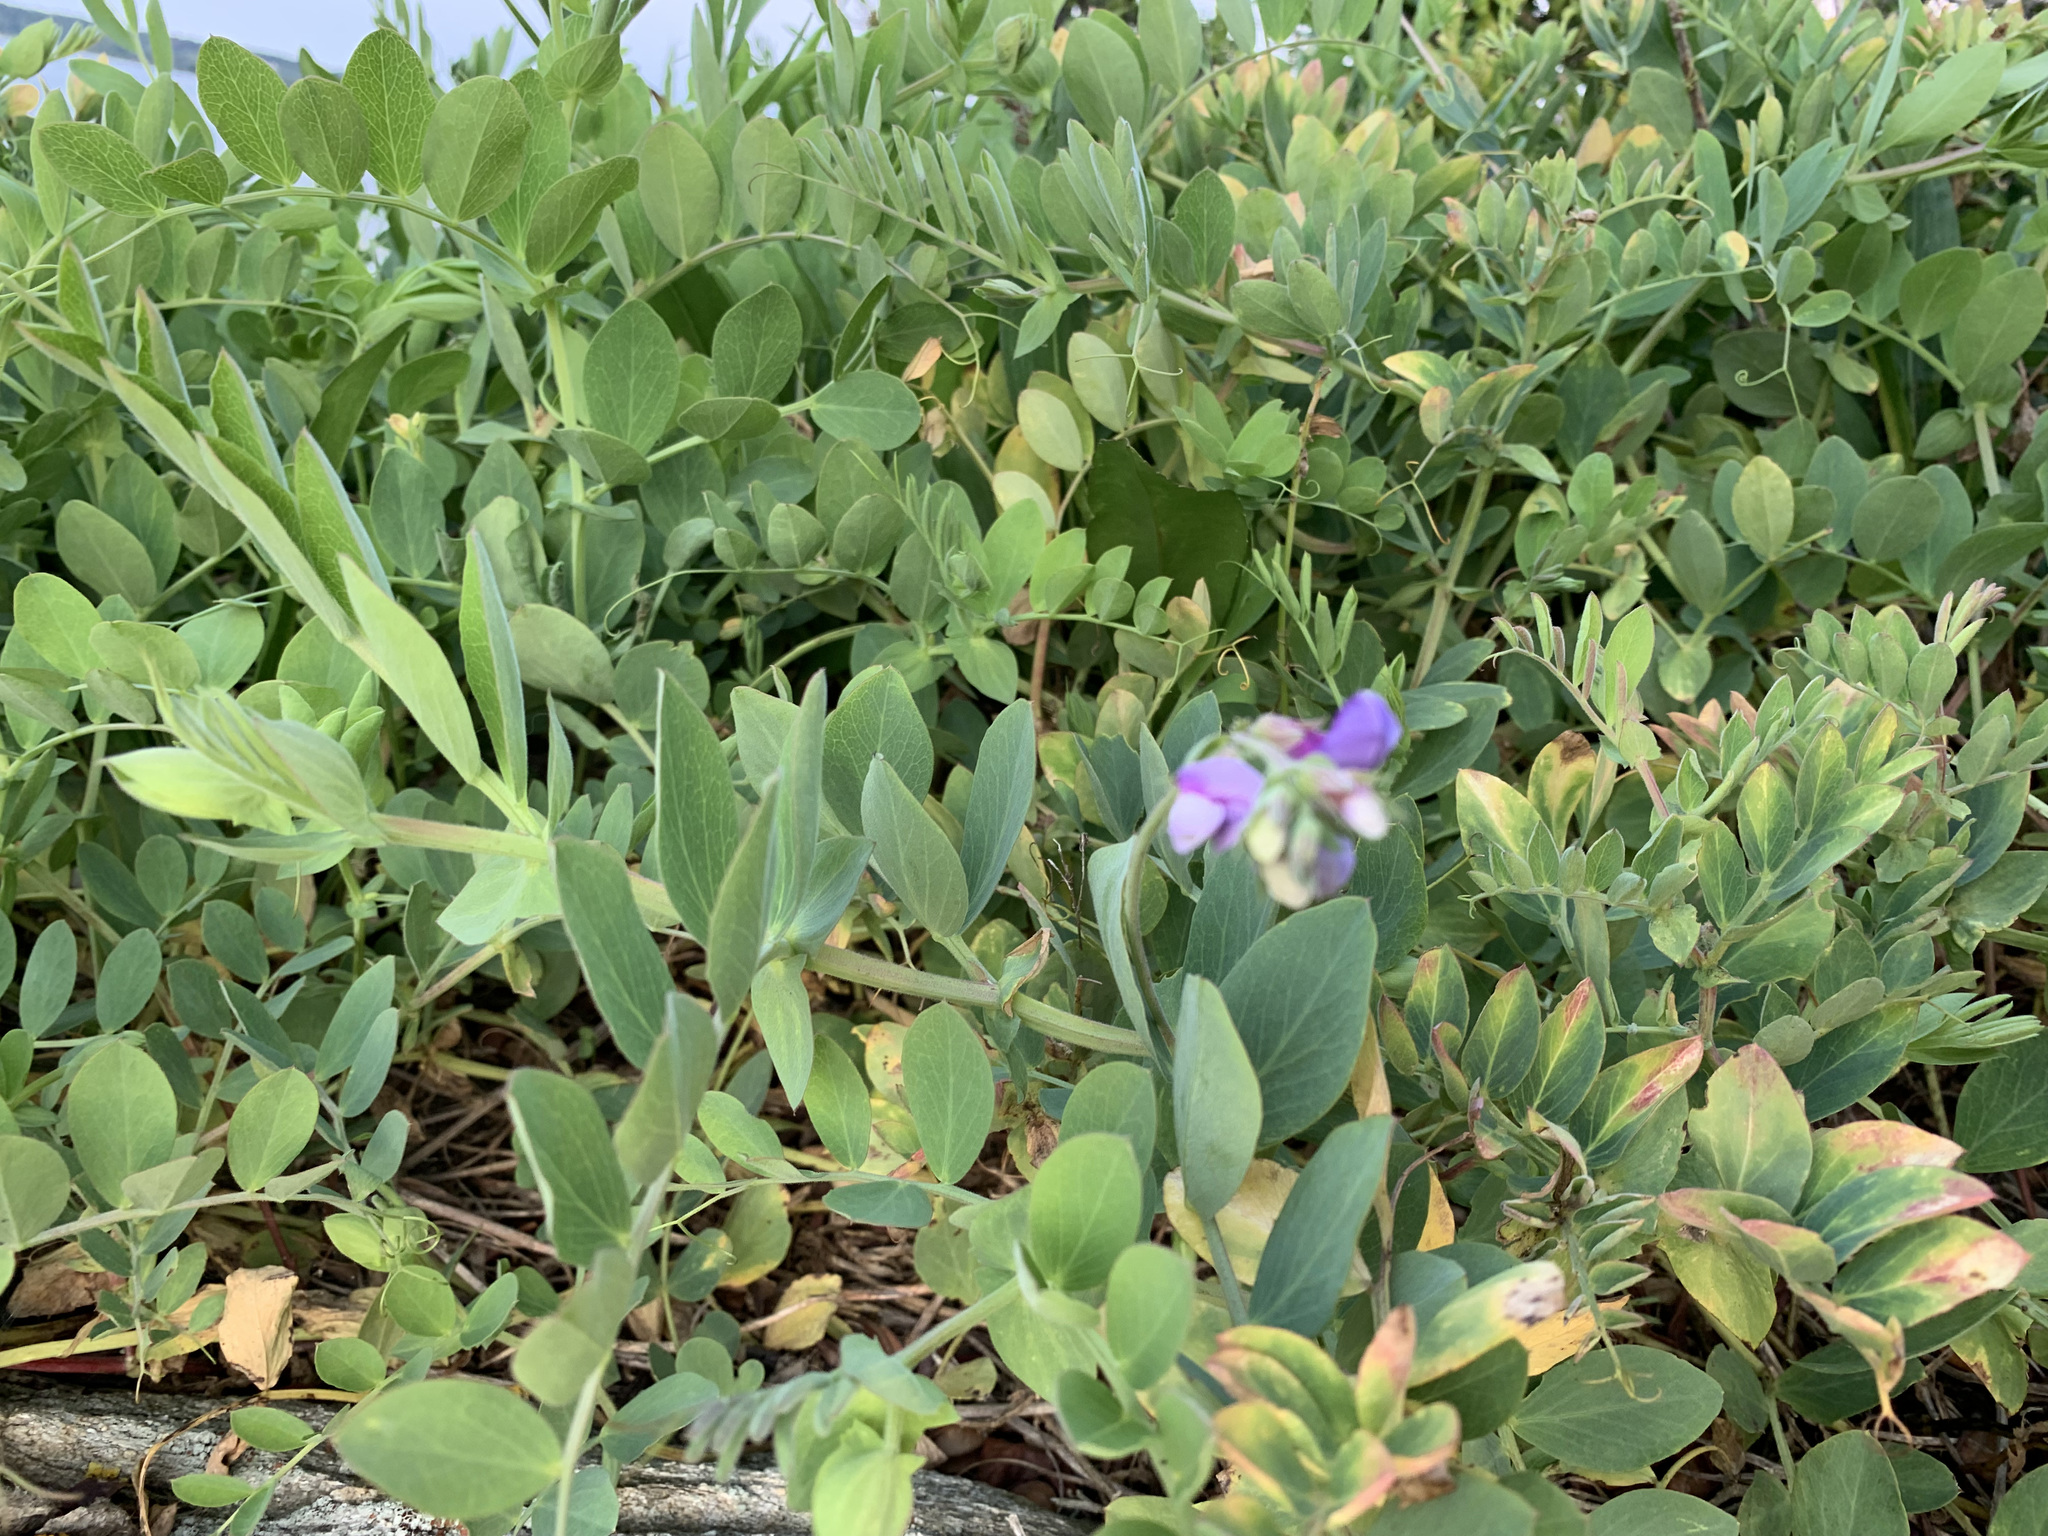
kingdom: Plantae
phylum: Tracheophyta
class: Magnoliopsida
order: Fabales
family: Fabaceae
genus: Lathyrus
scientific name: Lathyrus japonicus
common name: Sea pea
